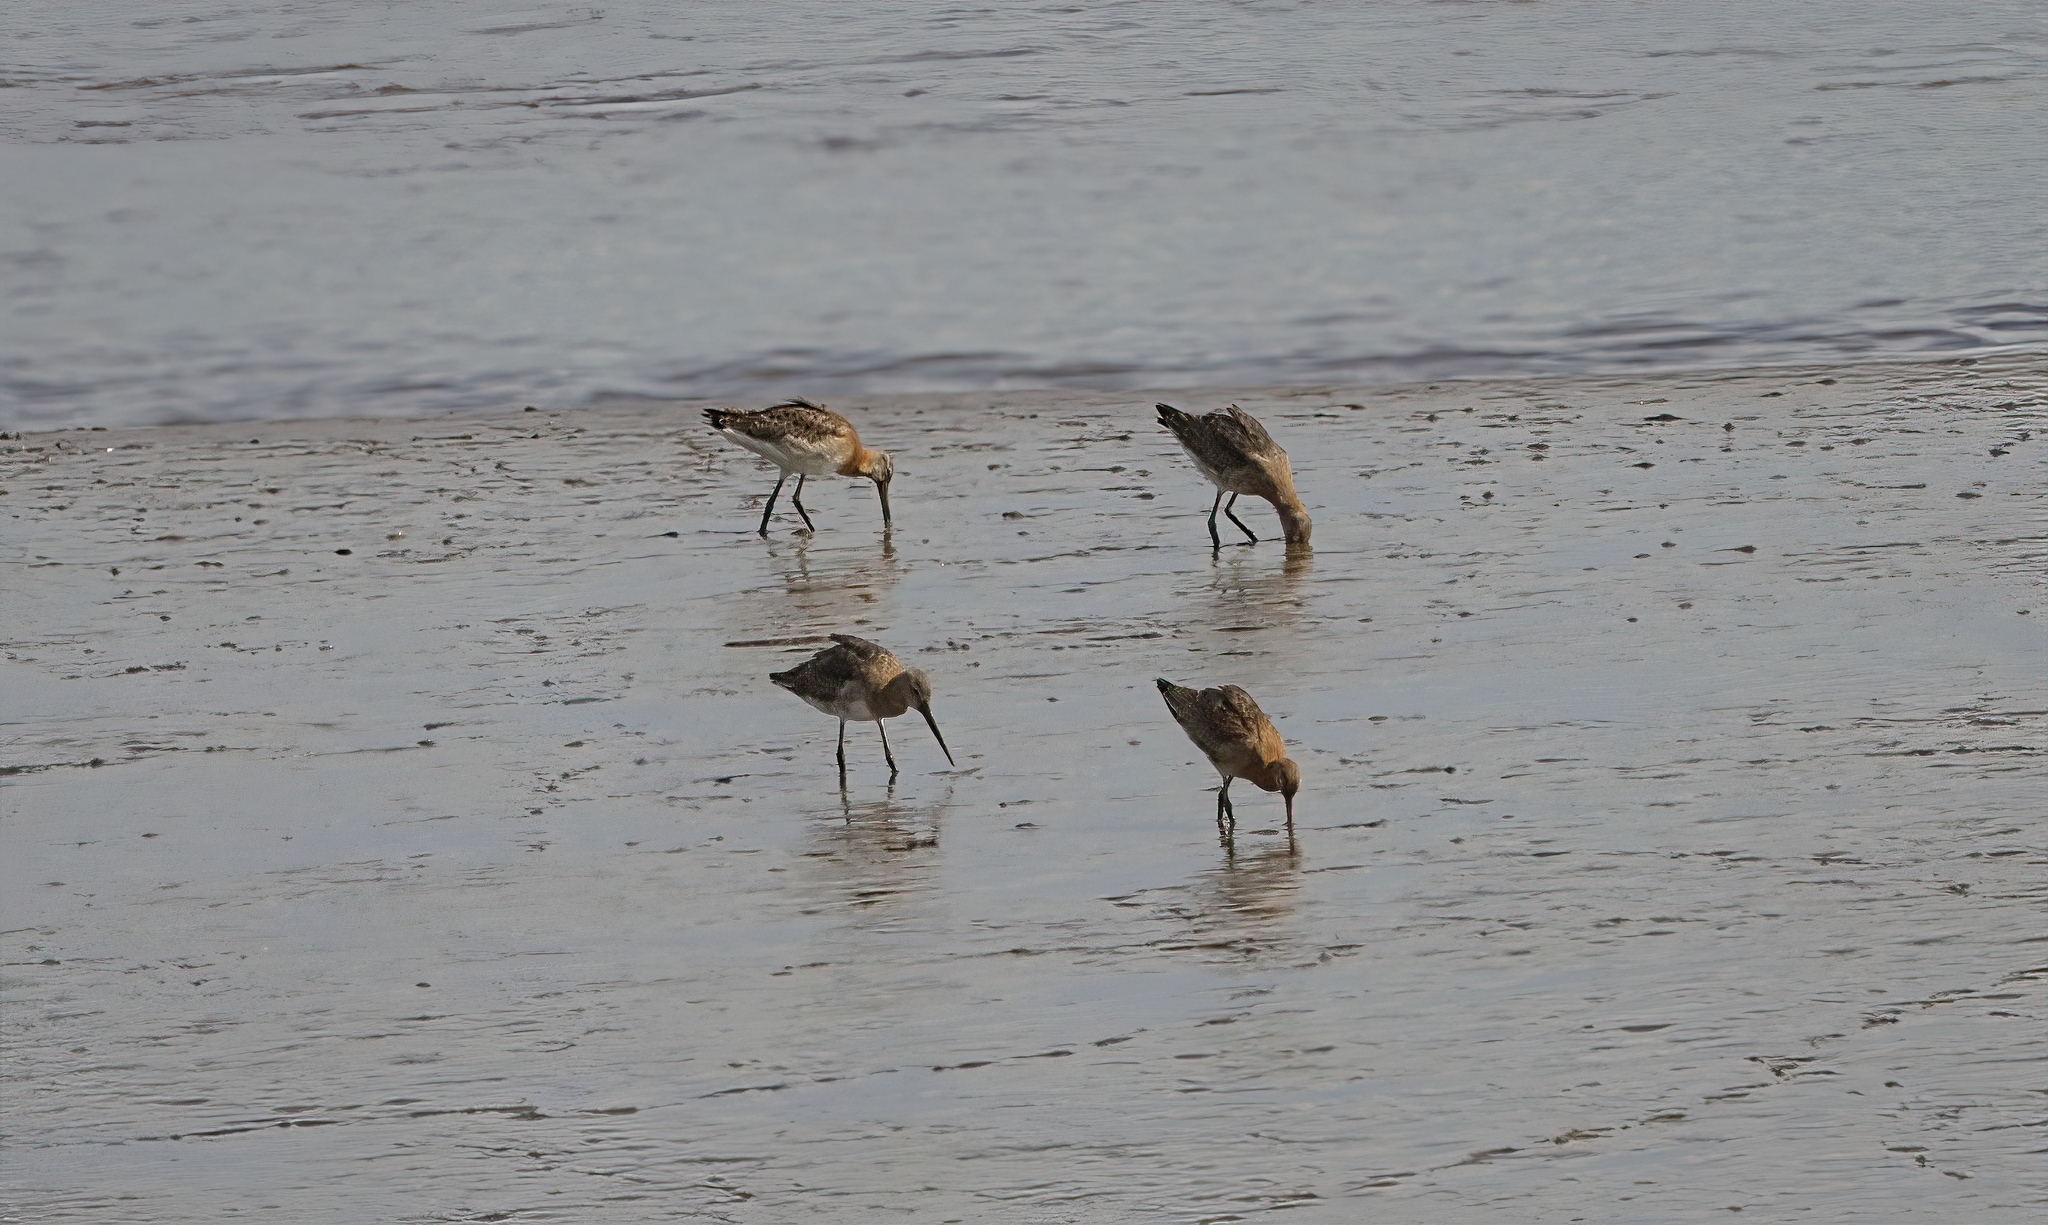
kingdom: Animalia
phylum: Chordata
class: Aves
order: Charadriiformes
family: Scolopacidae
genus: Limosa
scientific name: Limosa limosa
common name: Black-tailed godwit
